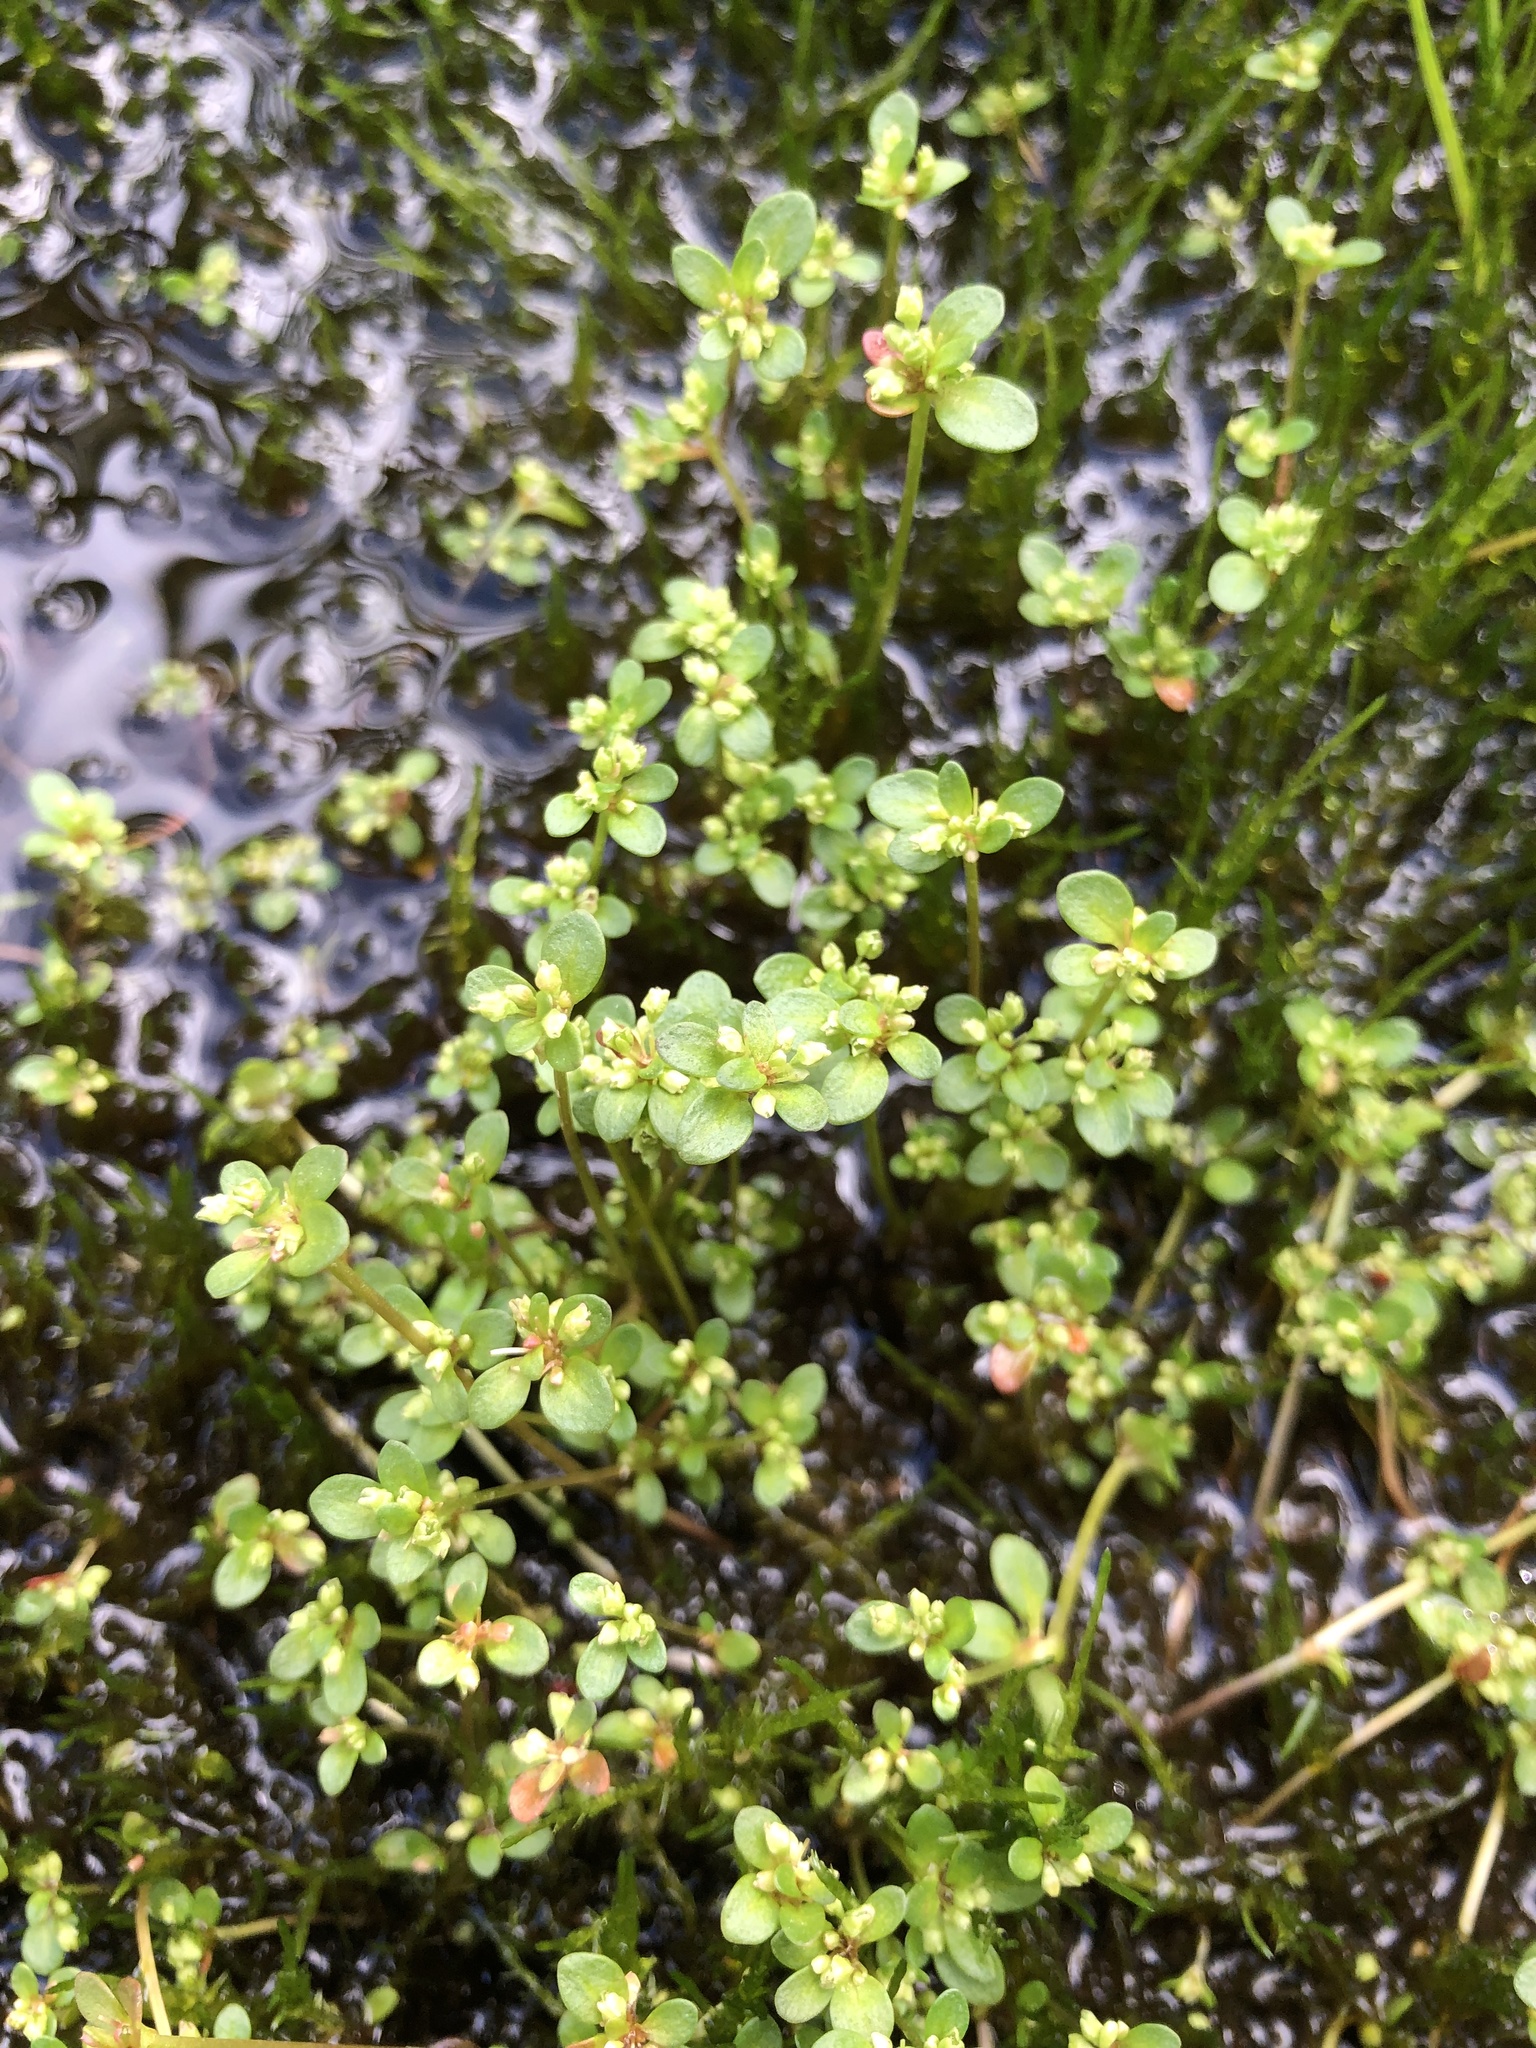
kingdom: Plantae
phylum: Tracheophyta
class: Magnoliopsida
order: Caryophyllales
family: Polygonaceae
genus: Koenigia
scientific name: Koenigia islandica
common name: Iceland-purslane
